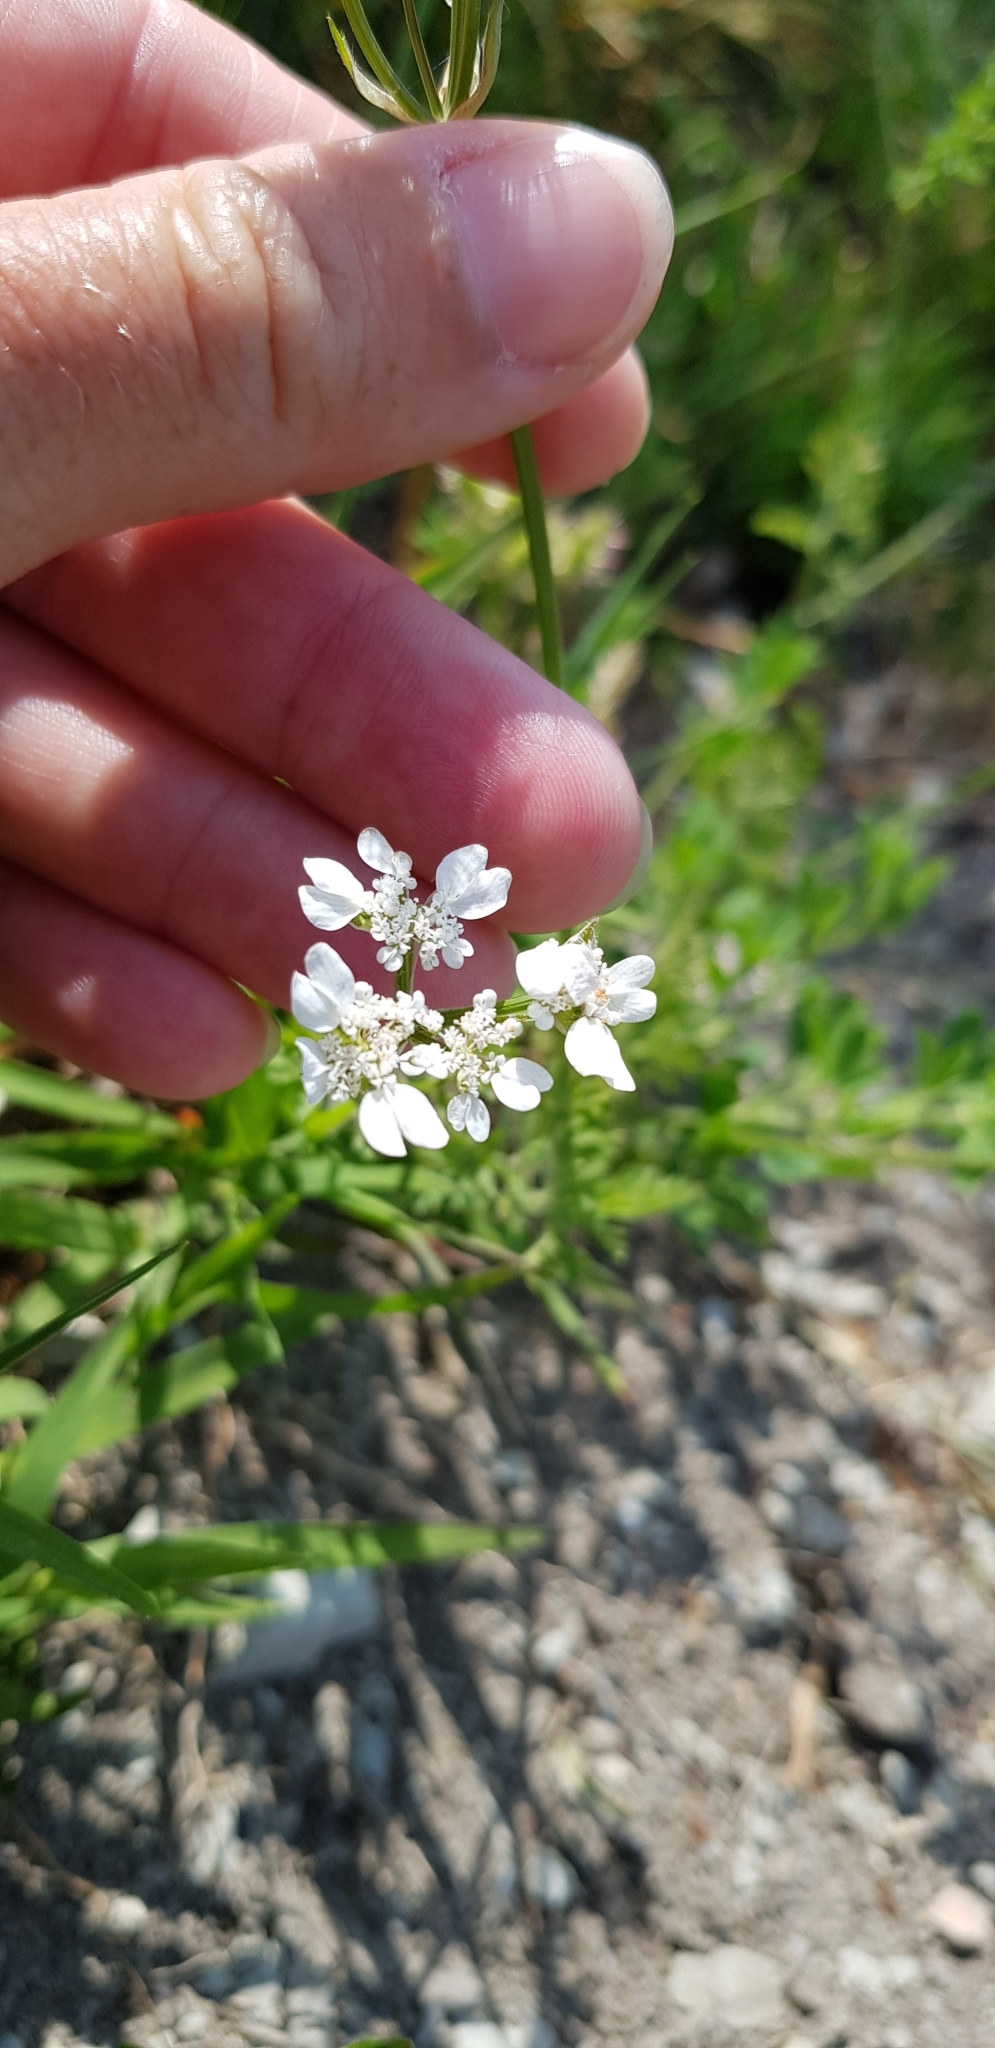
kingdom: Plantae
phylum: Tracheophyta
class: Magnoliopsida
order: Apiales
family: Apiaceae
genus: Orlaya
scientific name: Orlaya daucoides
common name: Flat-fruit orlaya
